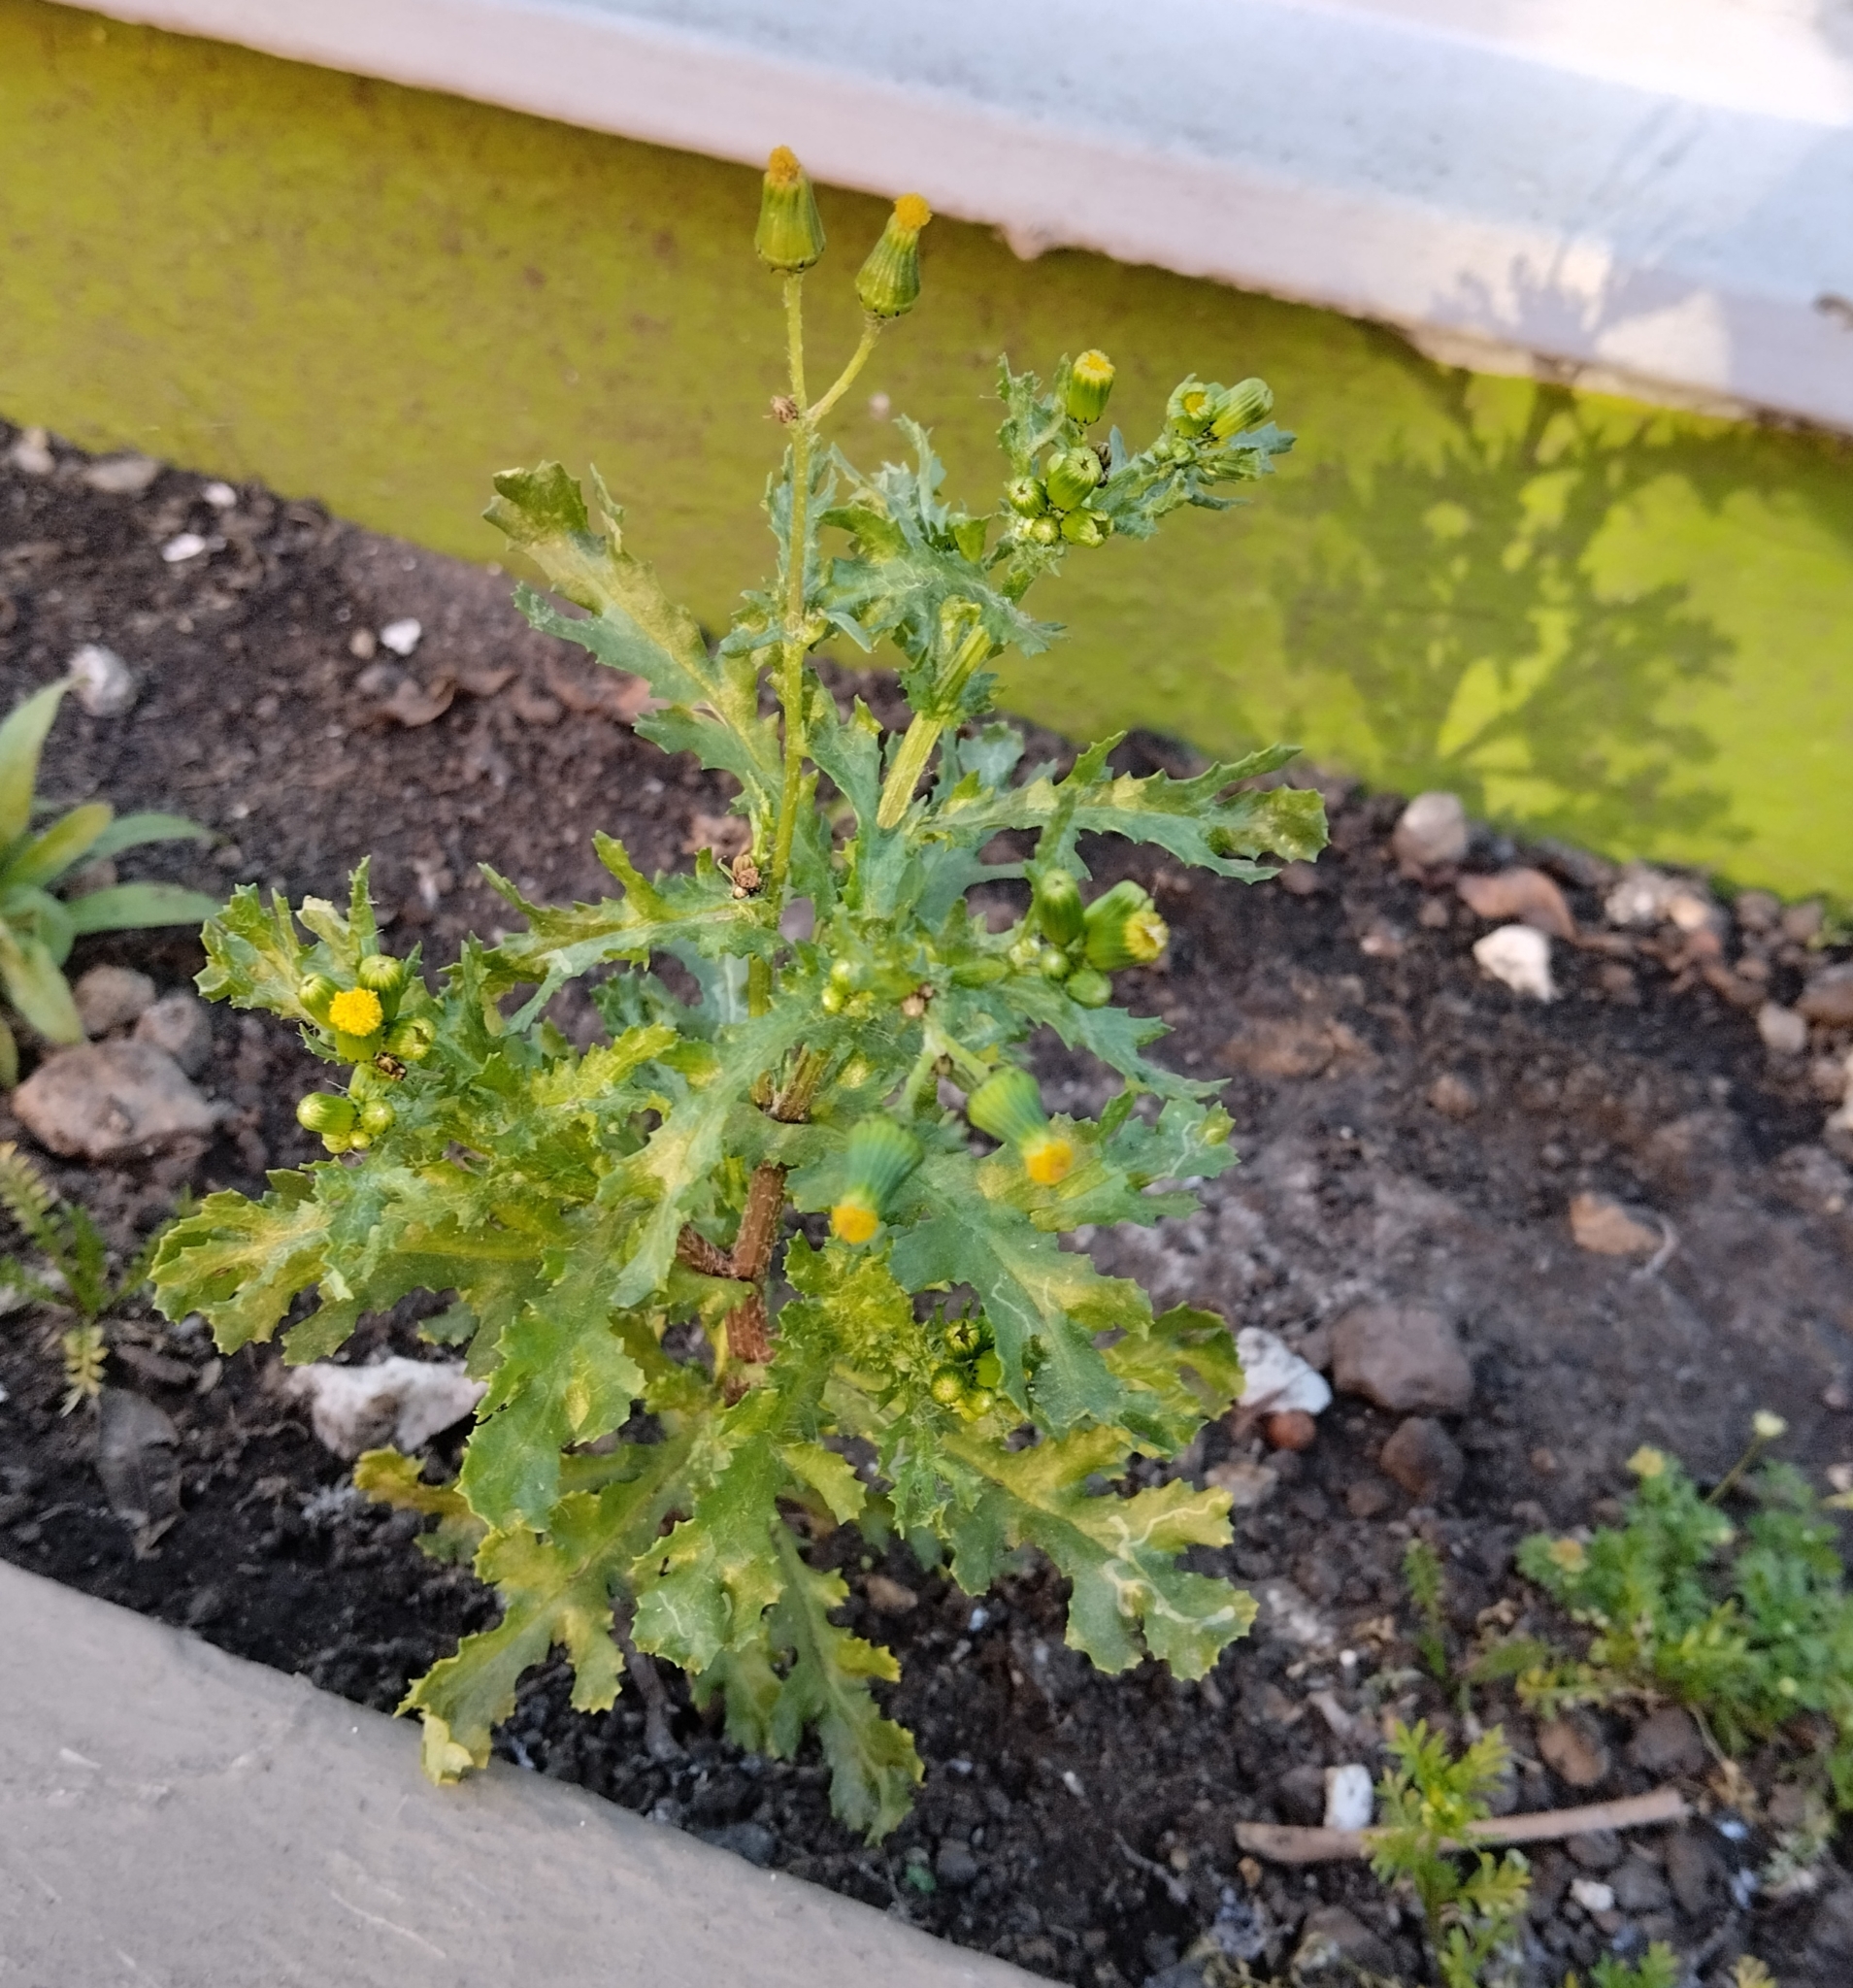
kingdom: Plantae
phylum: Tracheophyta
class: Magnoliopsida
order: Asterales
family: Asteraceae
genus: Senecio
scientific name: Senecio vulgaris
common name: Old-man-in-the-spring
